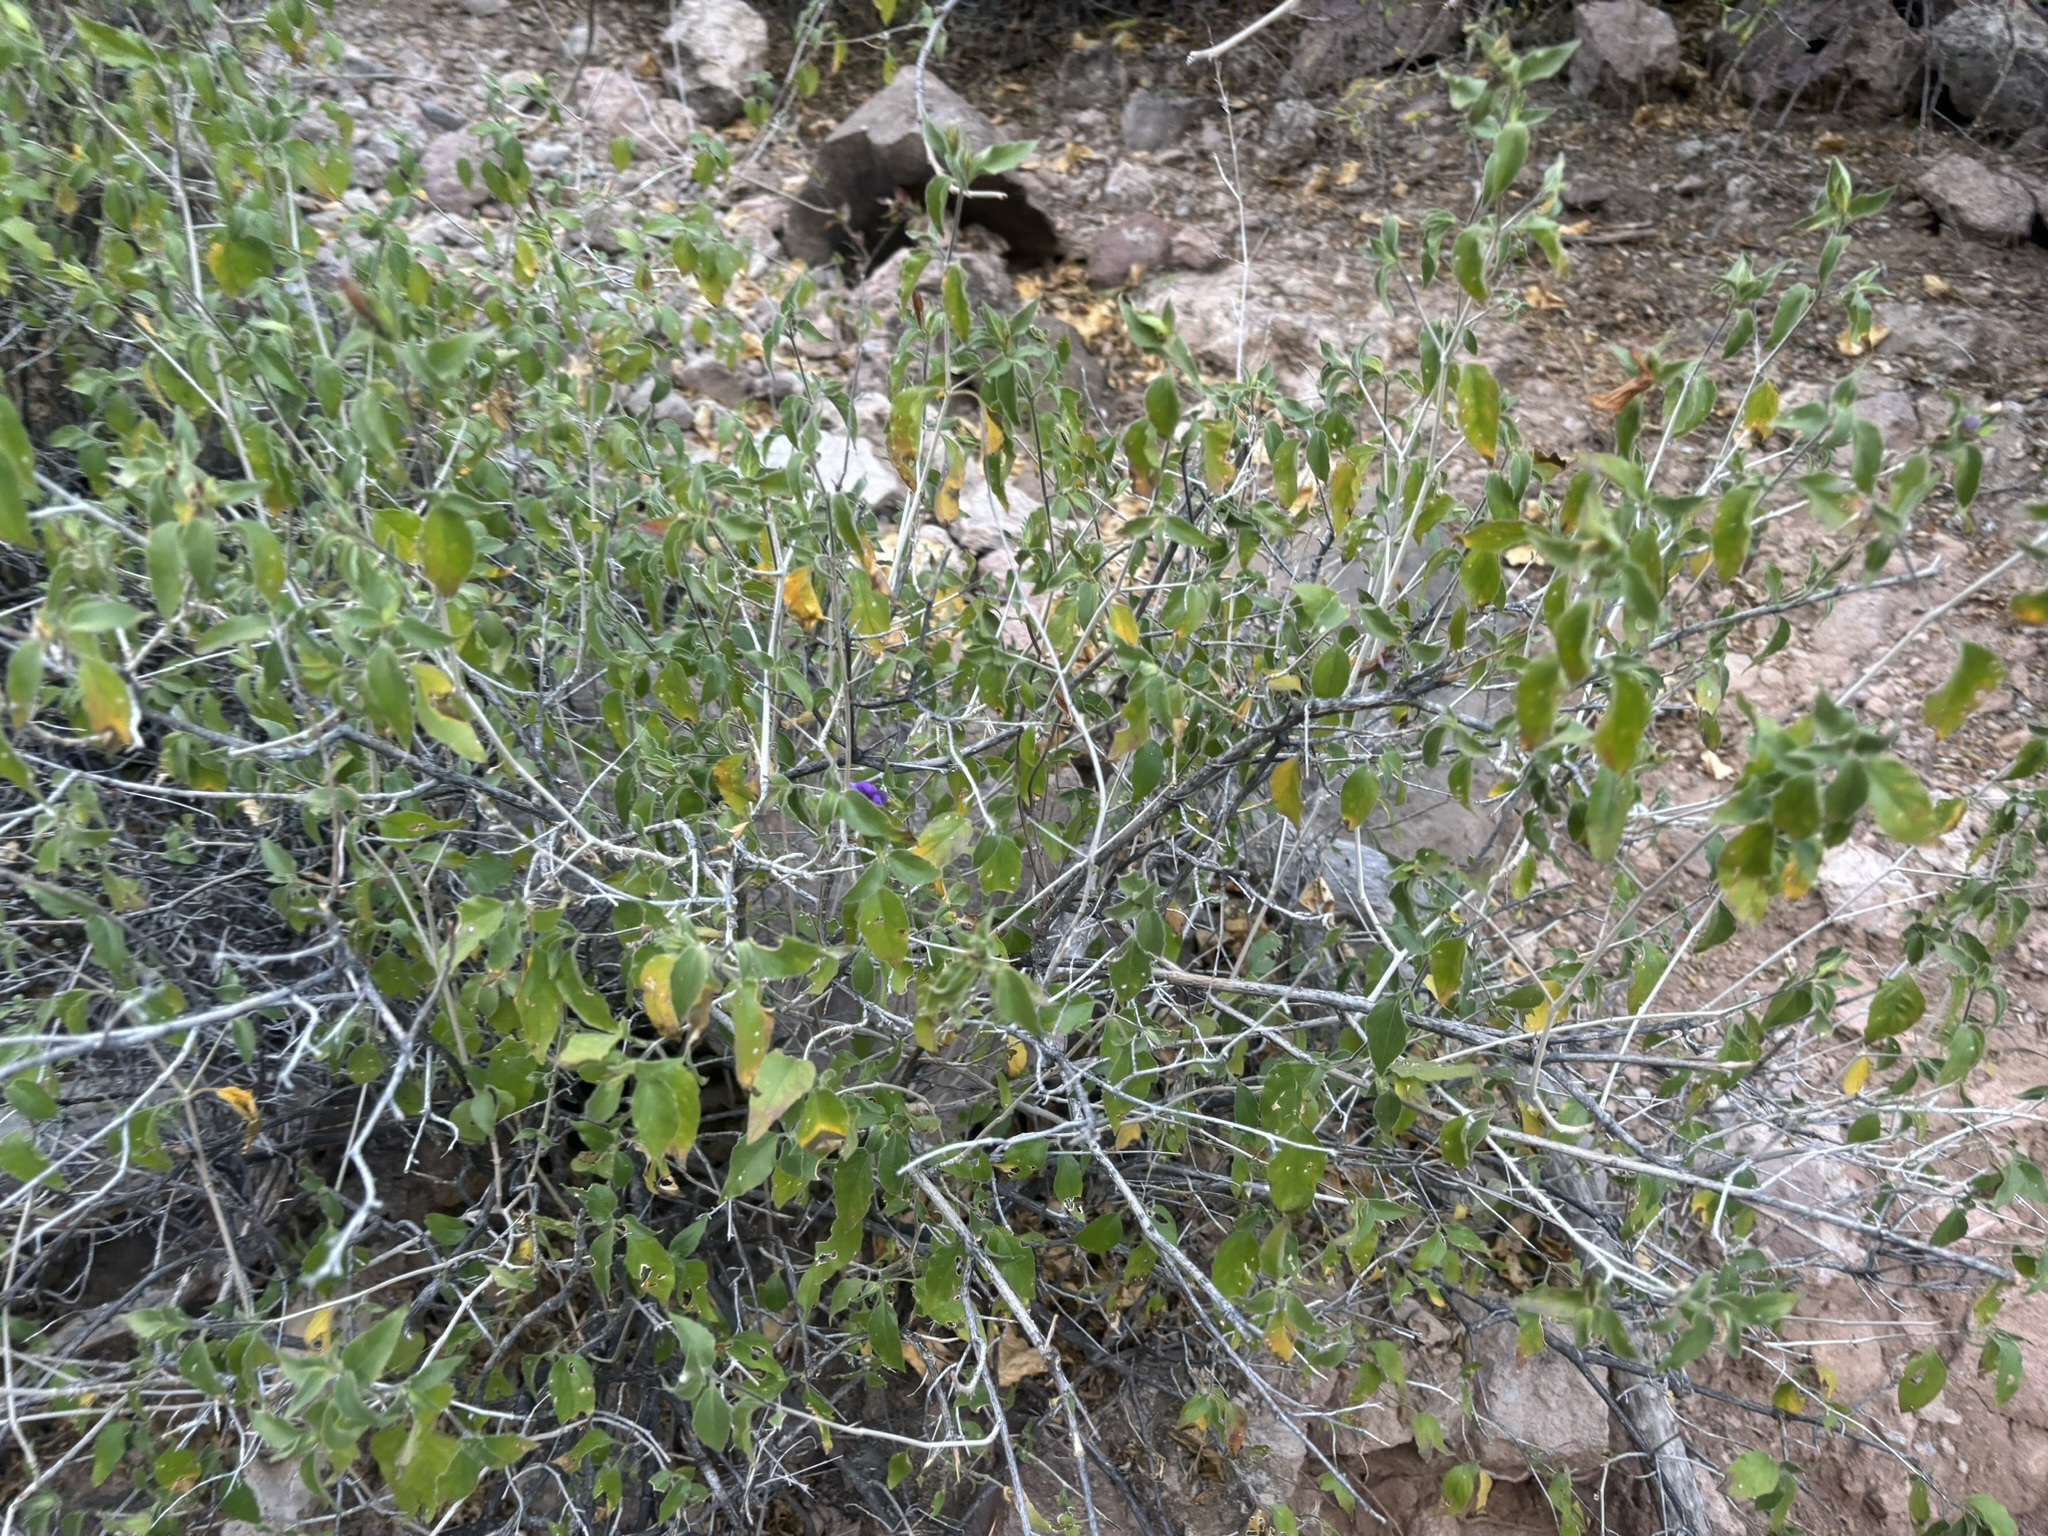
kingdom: Plantae
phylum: Tracheophyta
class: Magnoliopsida
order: Lamiales
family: Acanthaceae
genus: Ruellia
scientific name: Ruellia californica
